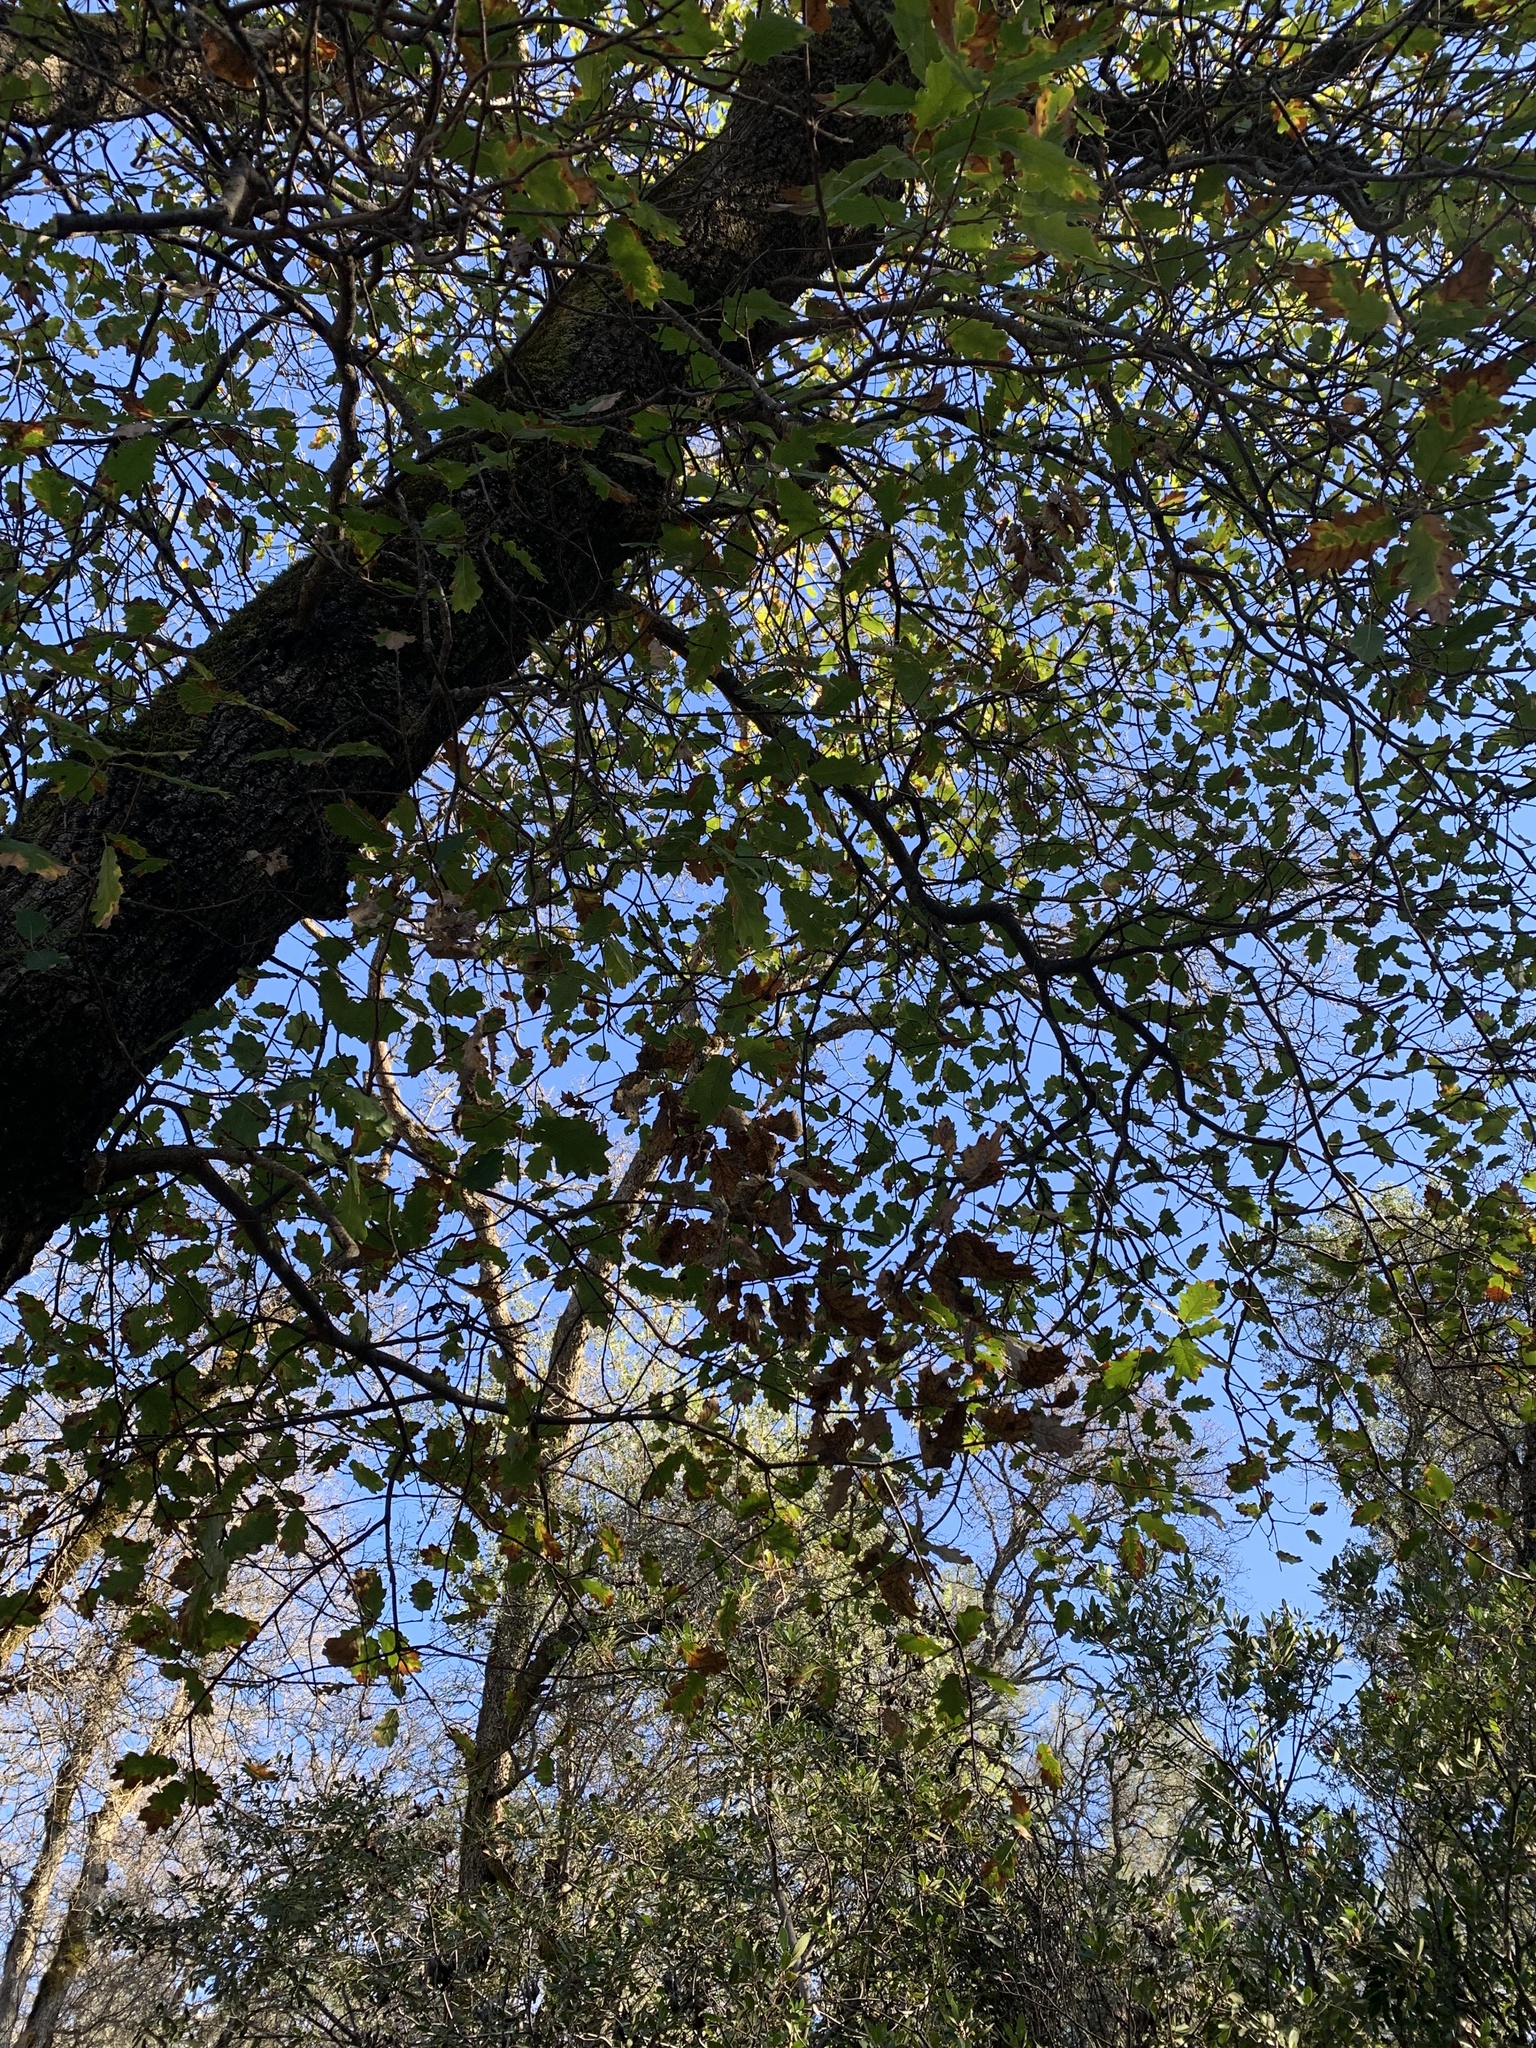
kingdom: Plantae
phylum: Tracheophyta
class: Magnoliopsida
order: Fagales
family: Fagaceae
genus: Quercus
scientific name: Quercus morehus
